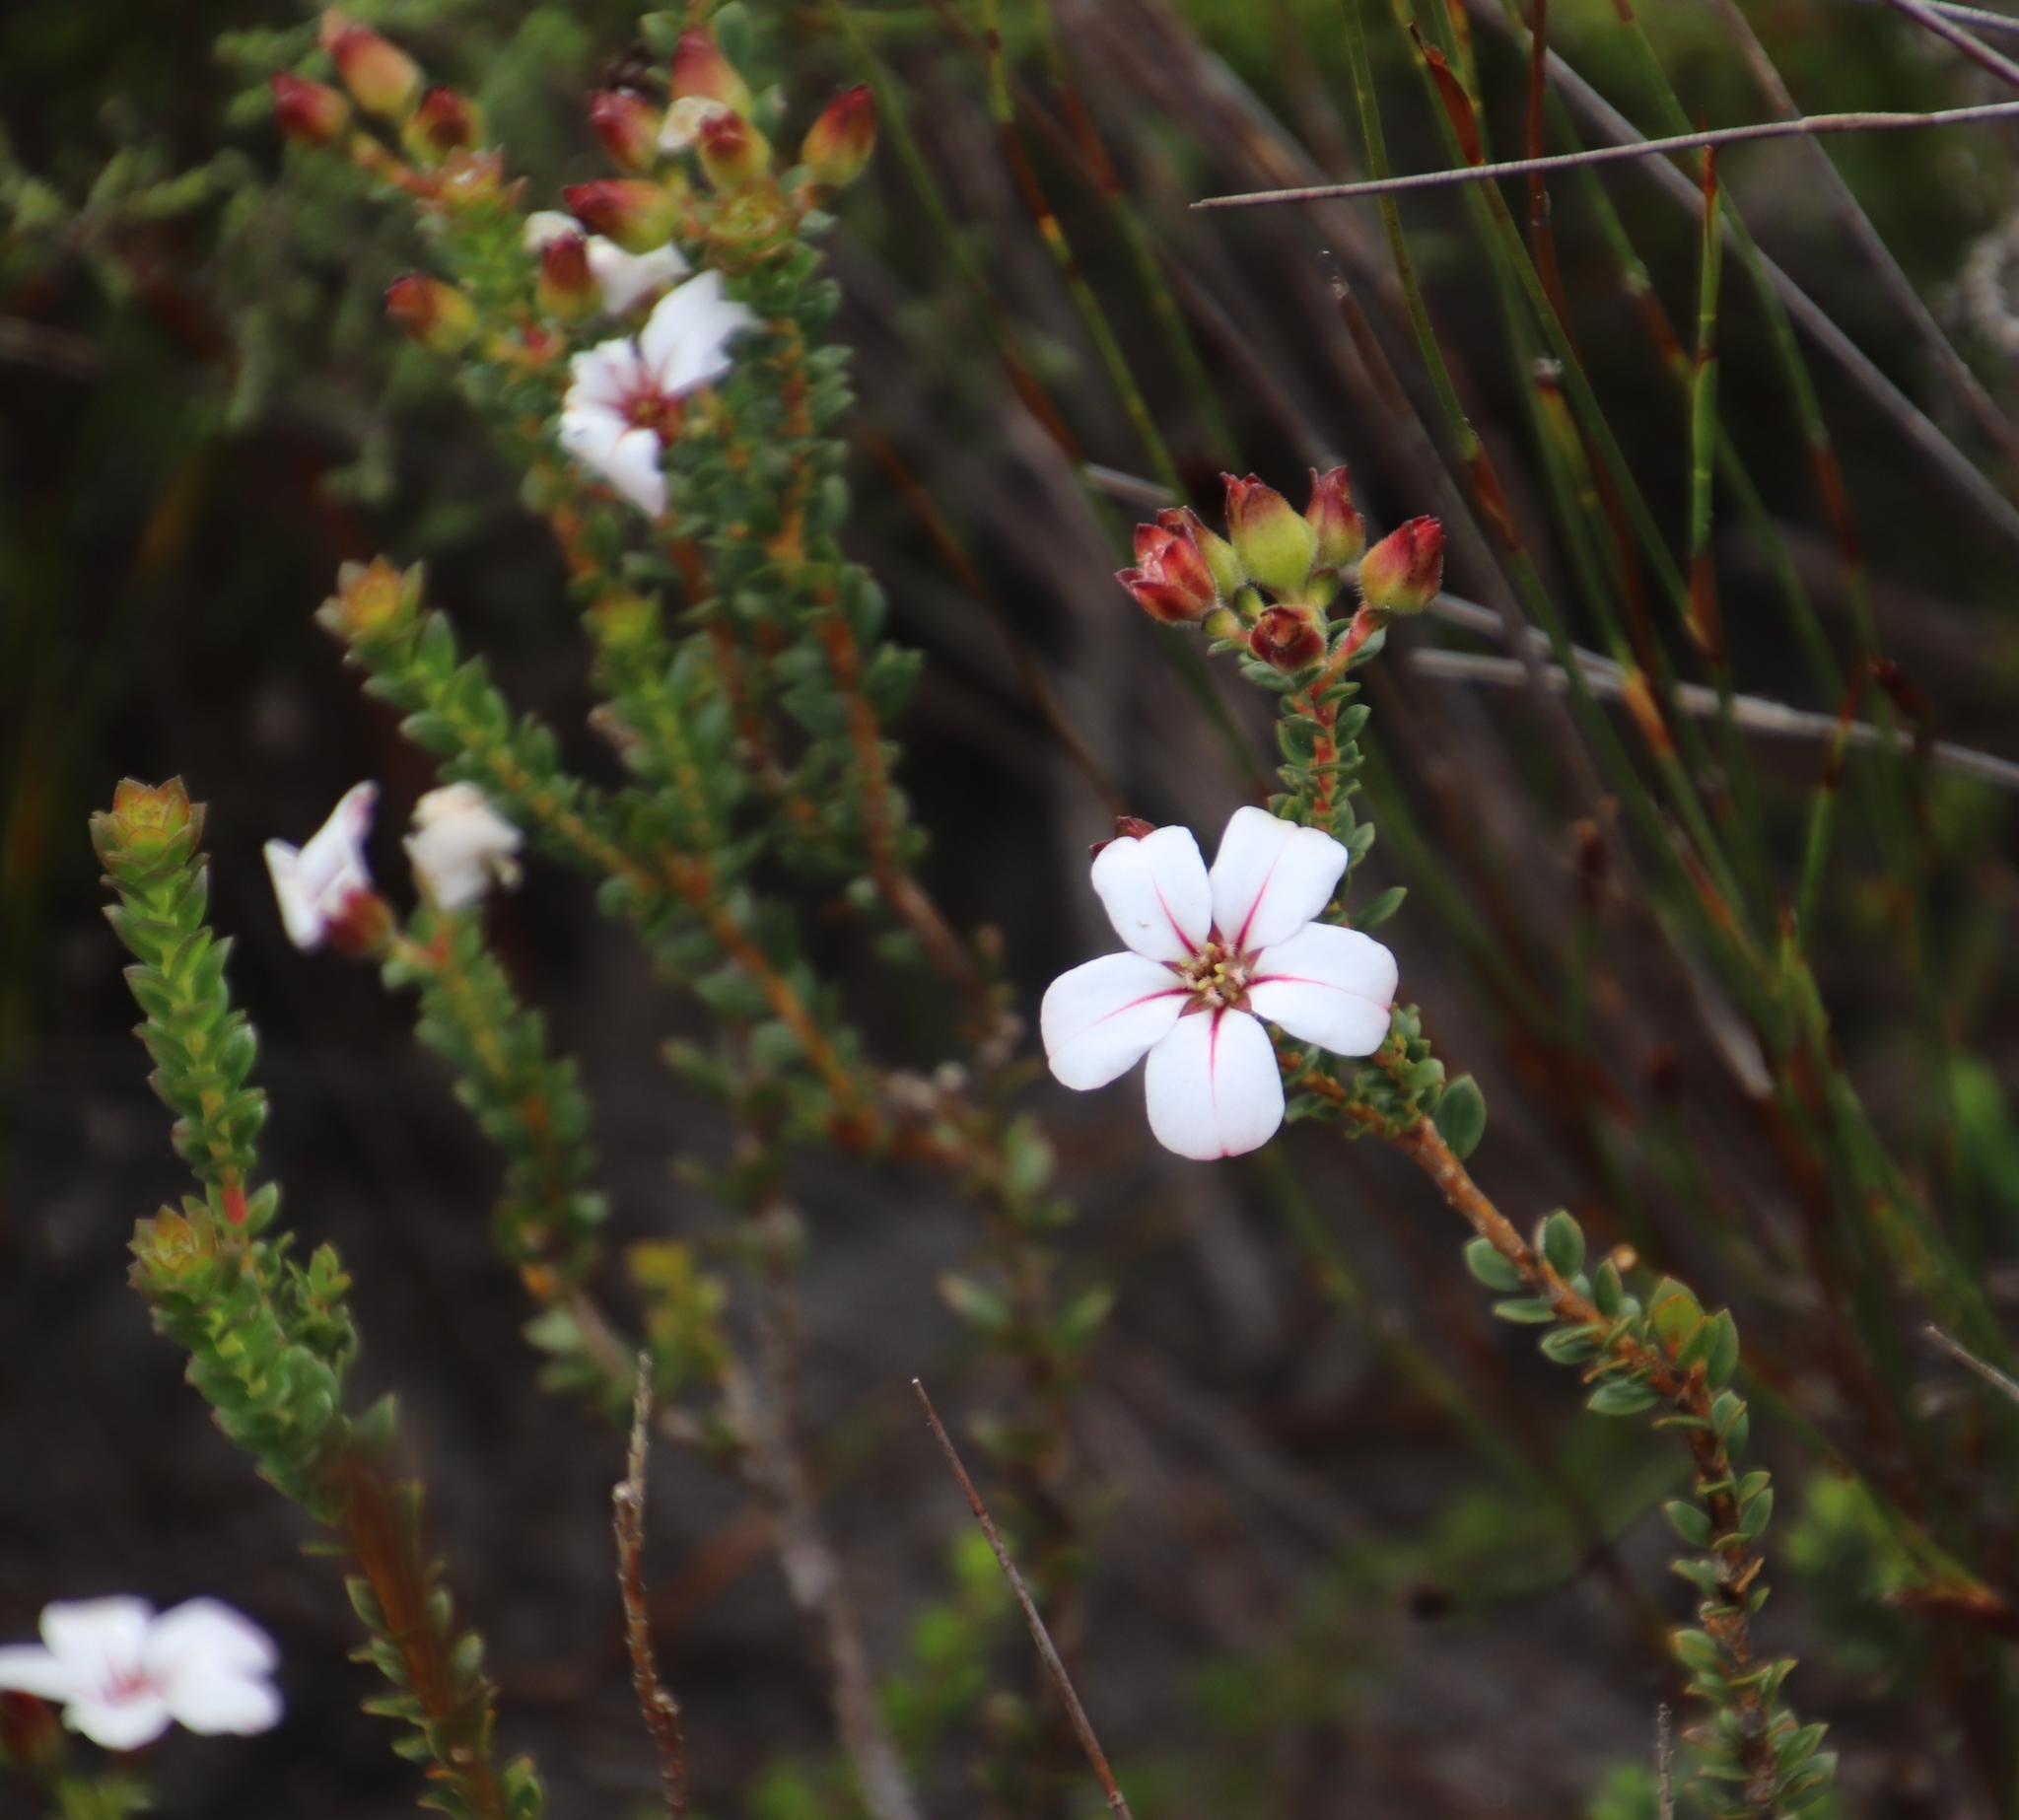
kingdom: Plantae
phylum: Tracheophyta
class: Magnoliopsida
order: Sapindales
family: Rutaceae
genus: Adenandra
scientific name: Adenandra villosa
